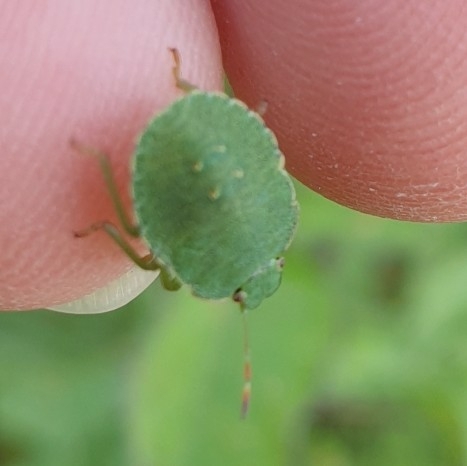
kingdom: Animalia
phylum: Arthropoda
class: Insecta
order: Hemiptera
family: Pentatomidae
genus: Palomena
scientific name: Palomena prasina
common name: Green shieldbug
